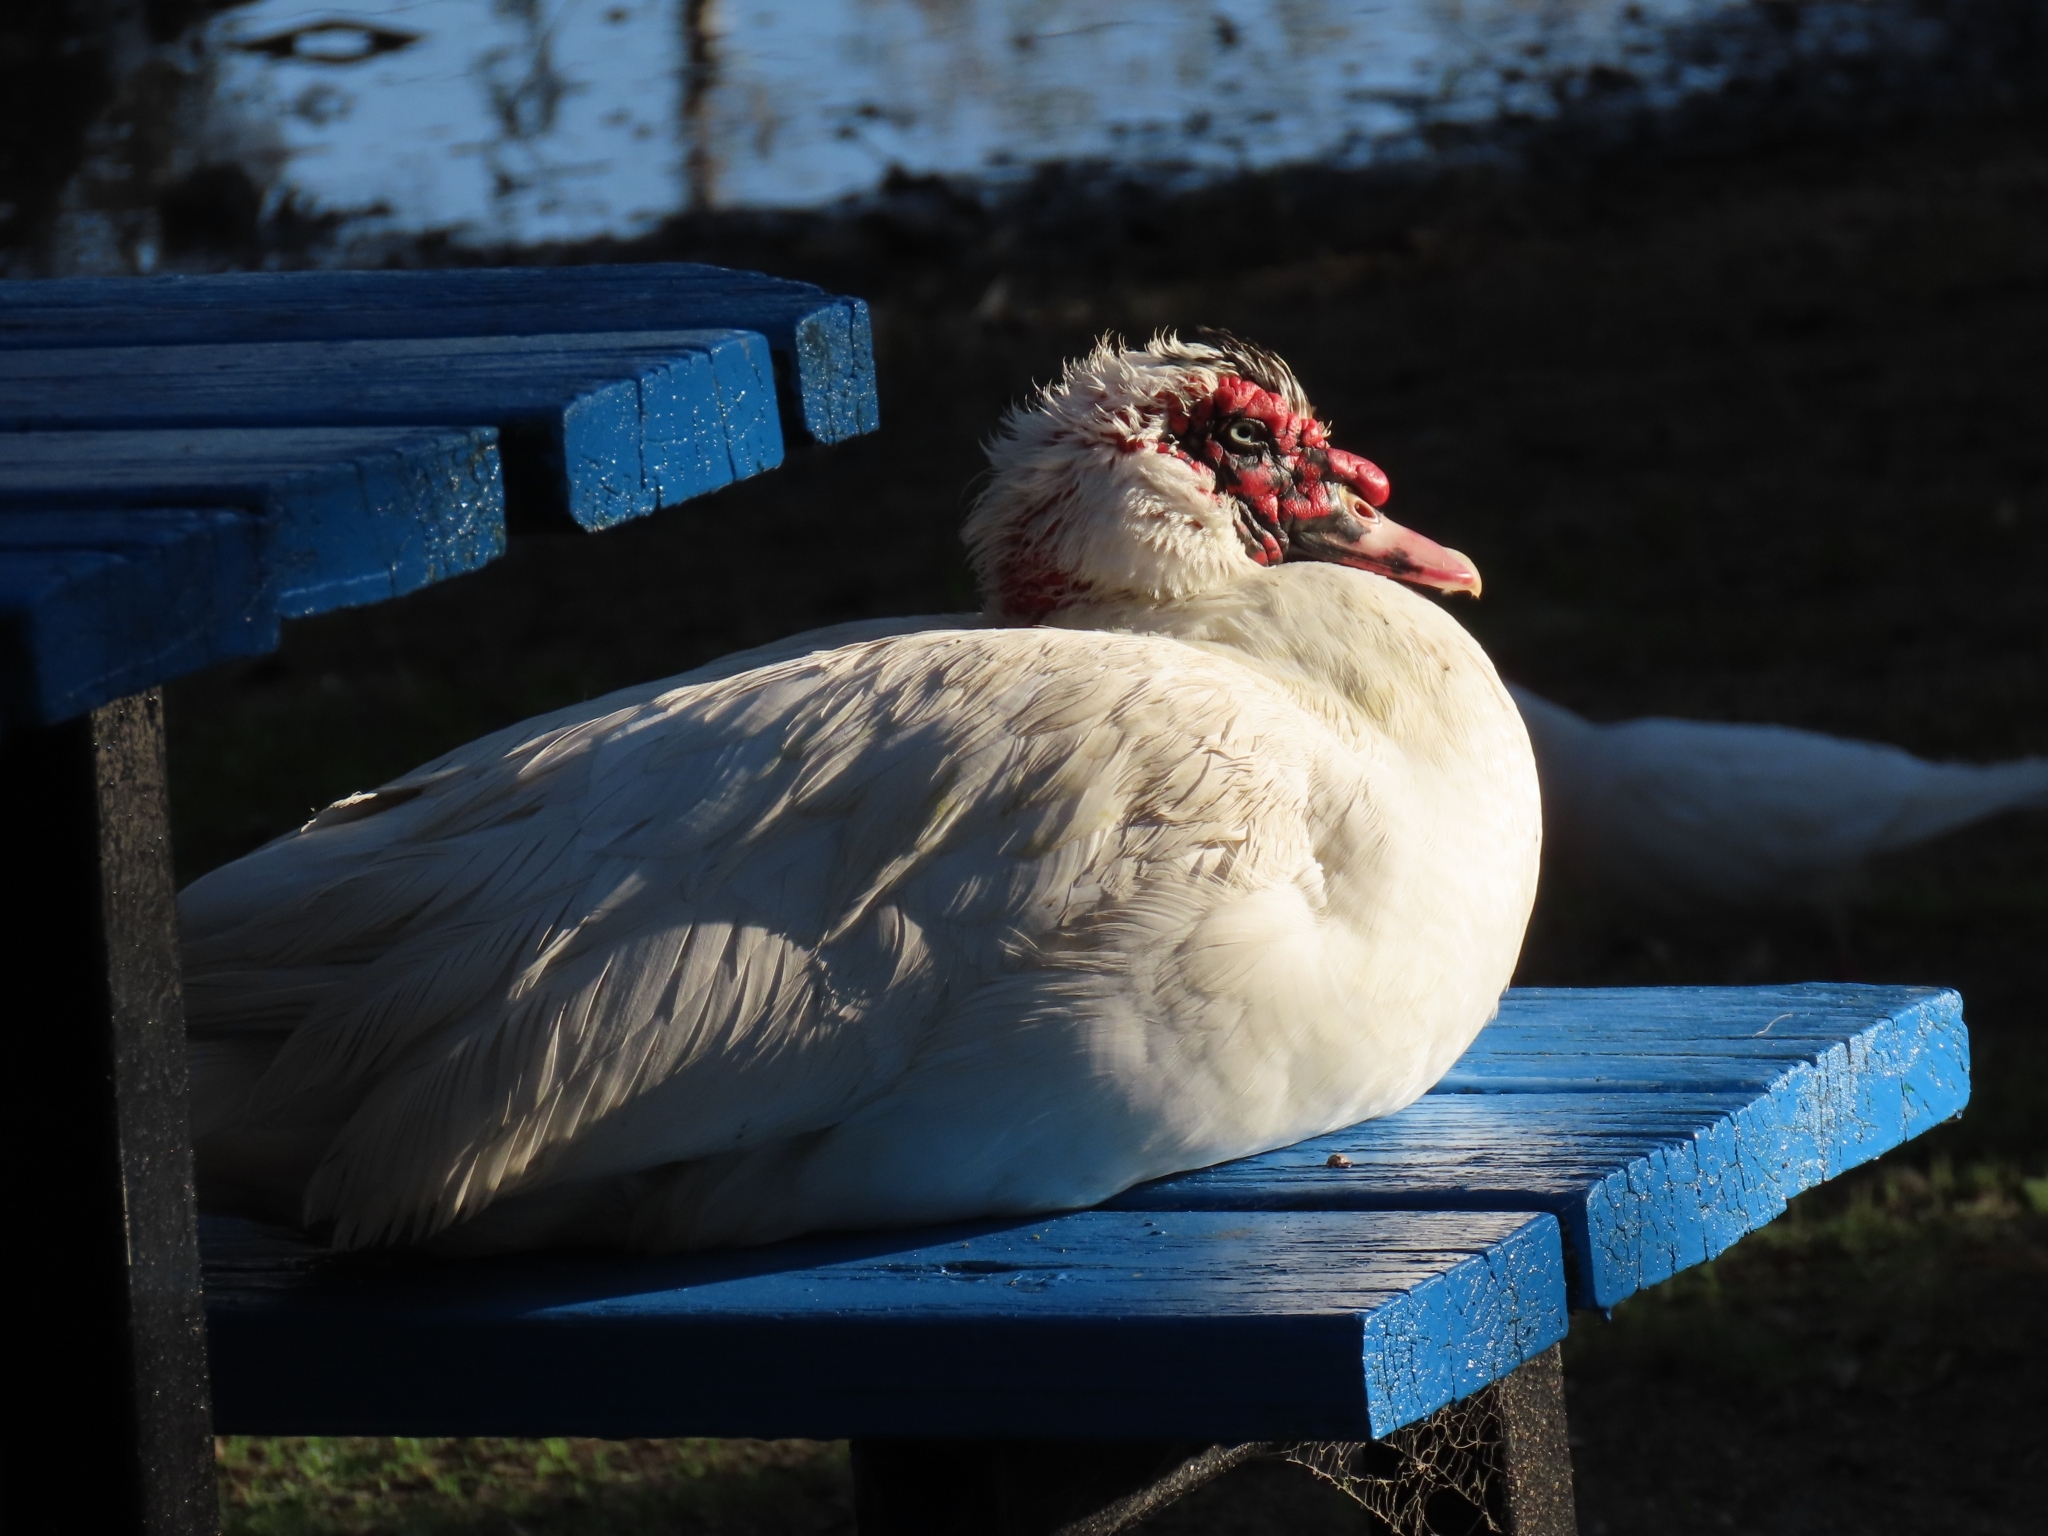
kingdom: Animalia
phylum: Chordata
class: Aves
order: Anseriformes
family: Anatidae
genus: Cairina
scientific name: Cairina moschata
